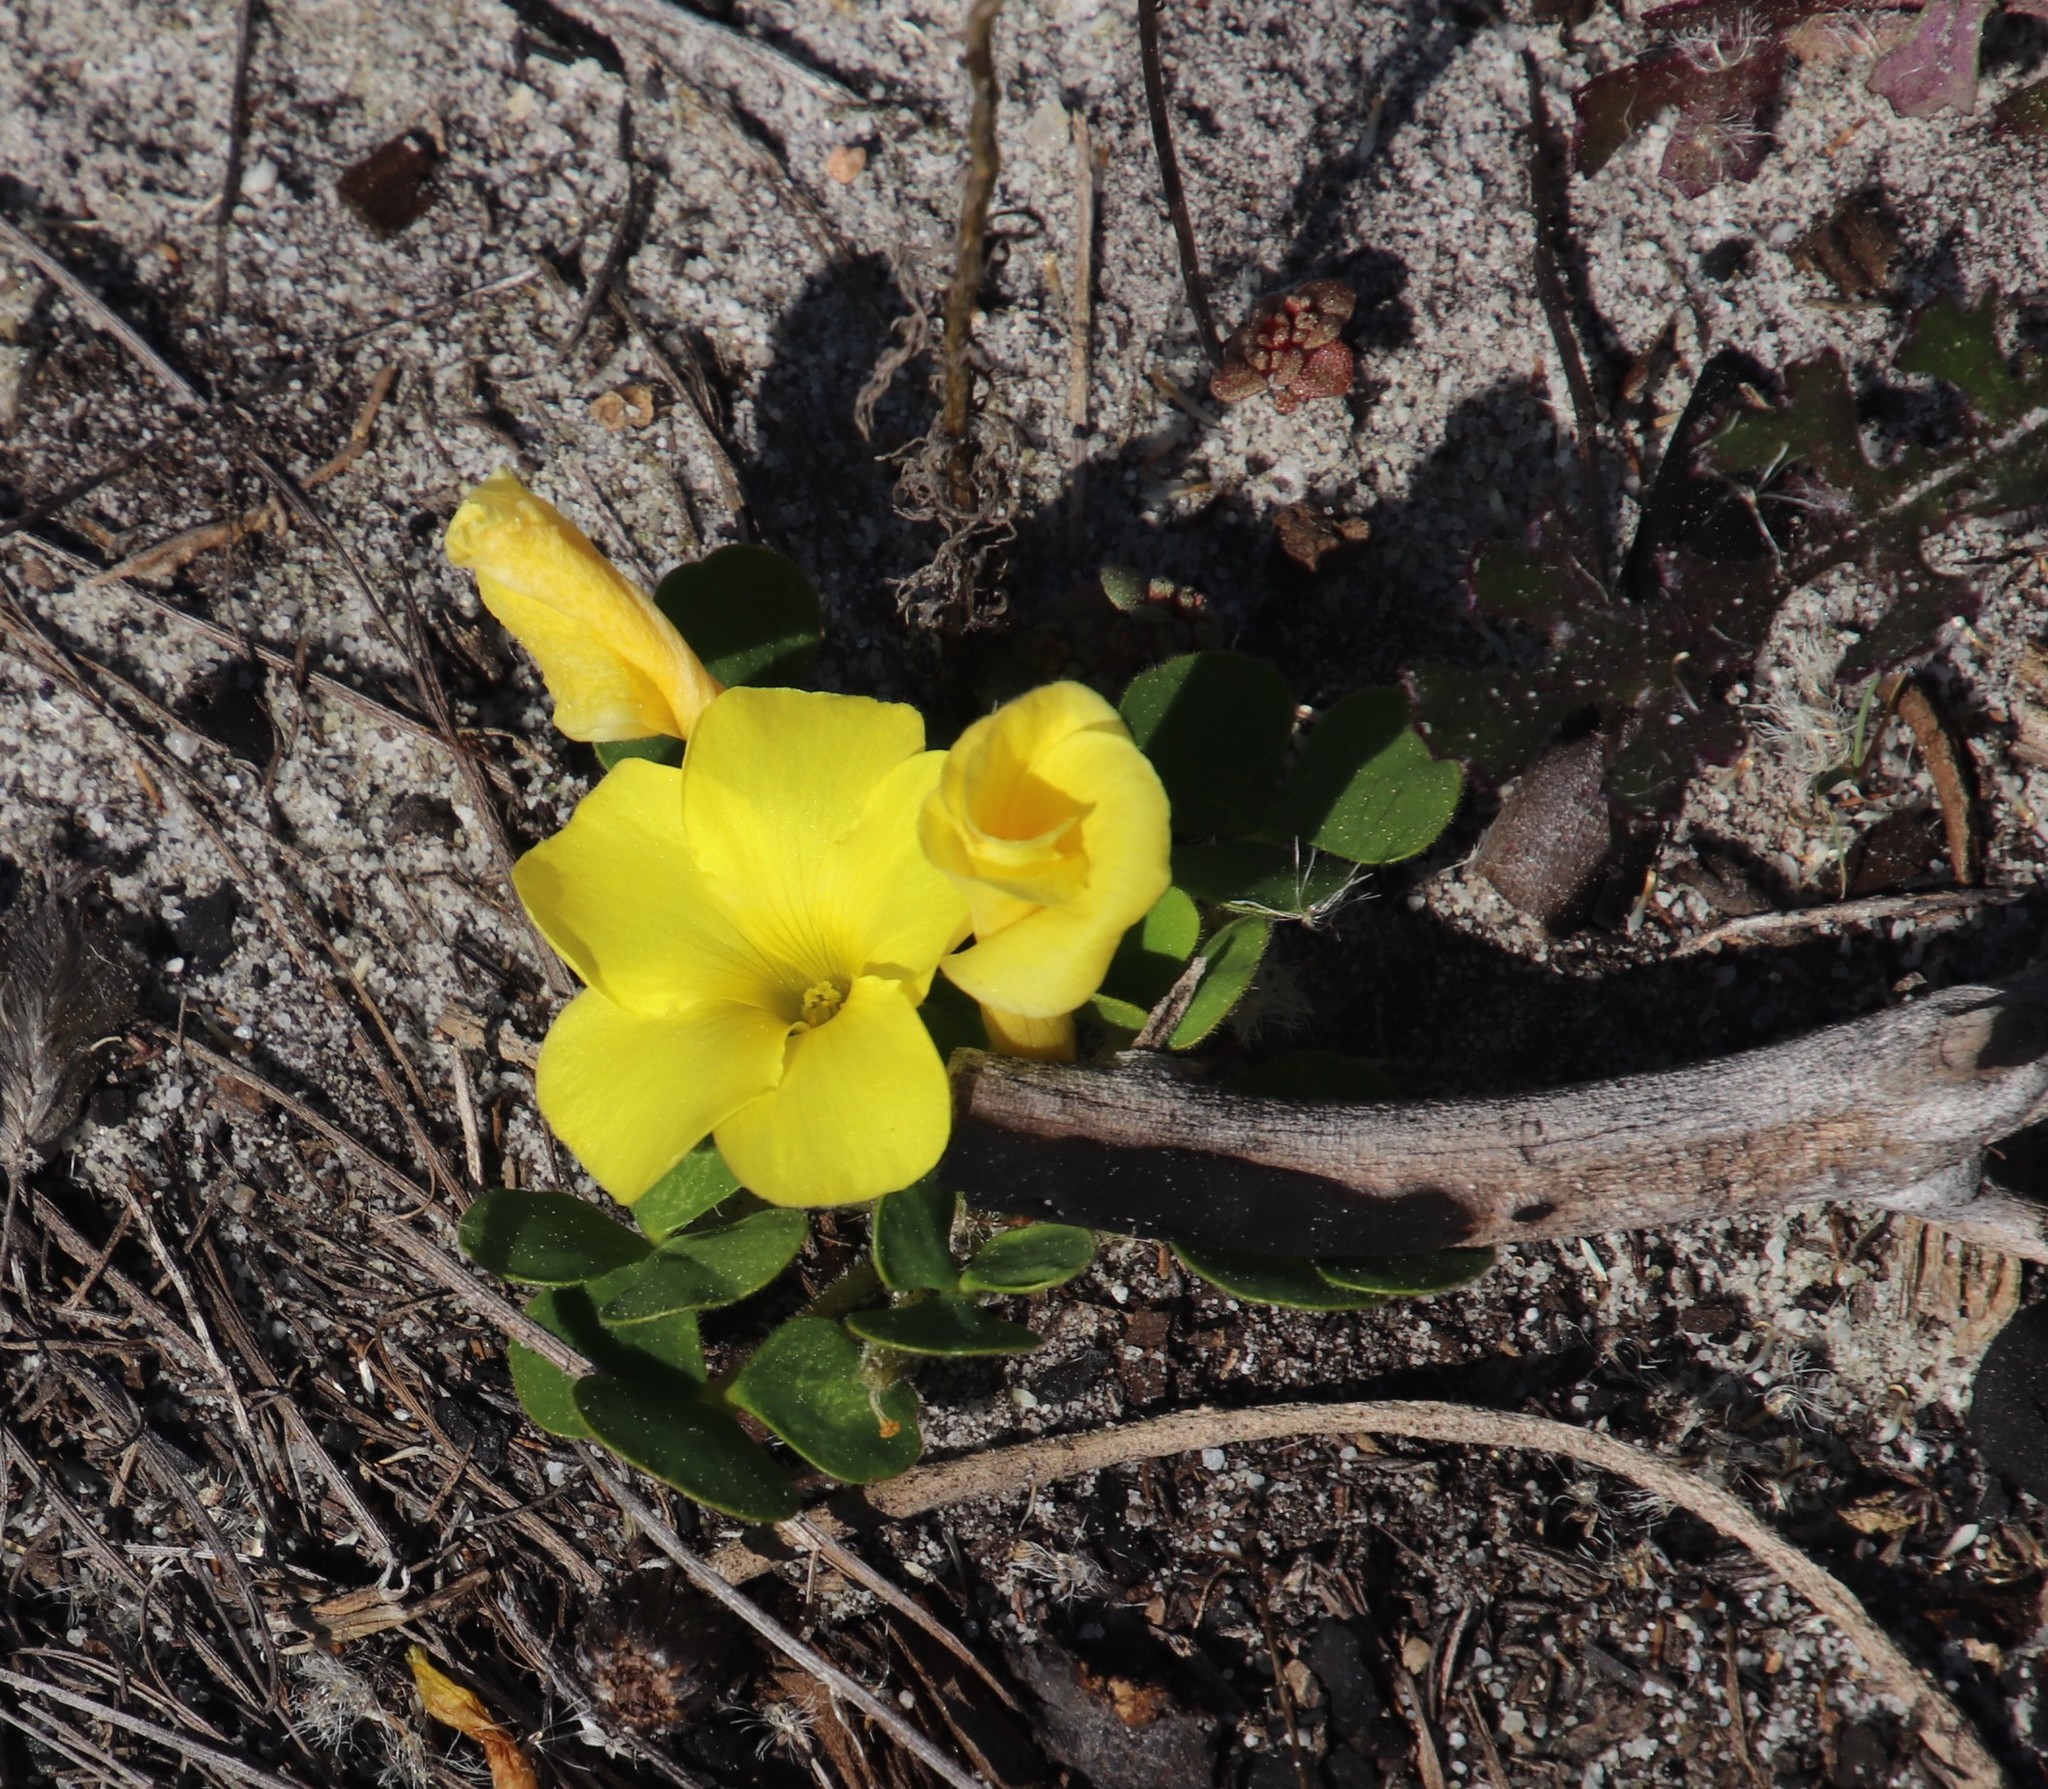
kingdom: Plantae
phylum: Tracheophyta
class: Magnoliopsida
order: Oxalidales
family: Oxalidaceae
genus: Oxalis
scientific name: Oxalis luteola
